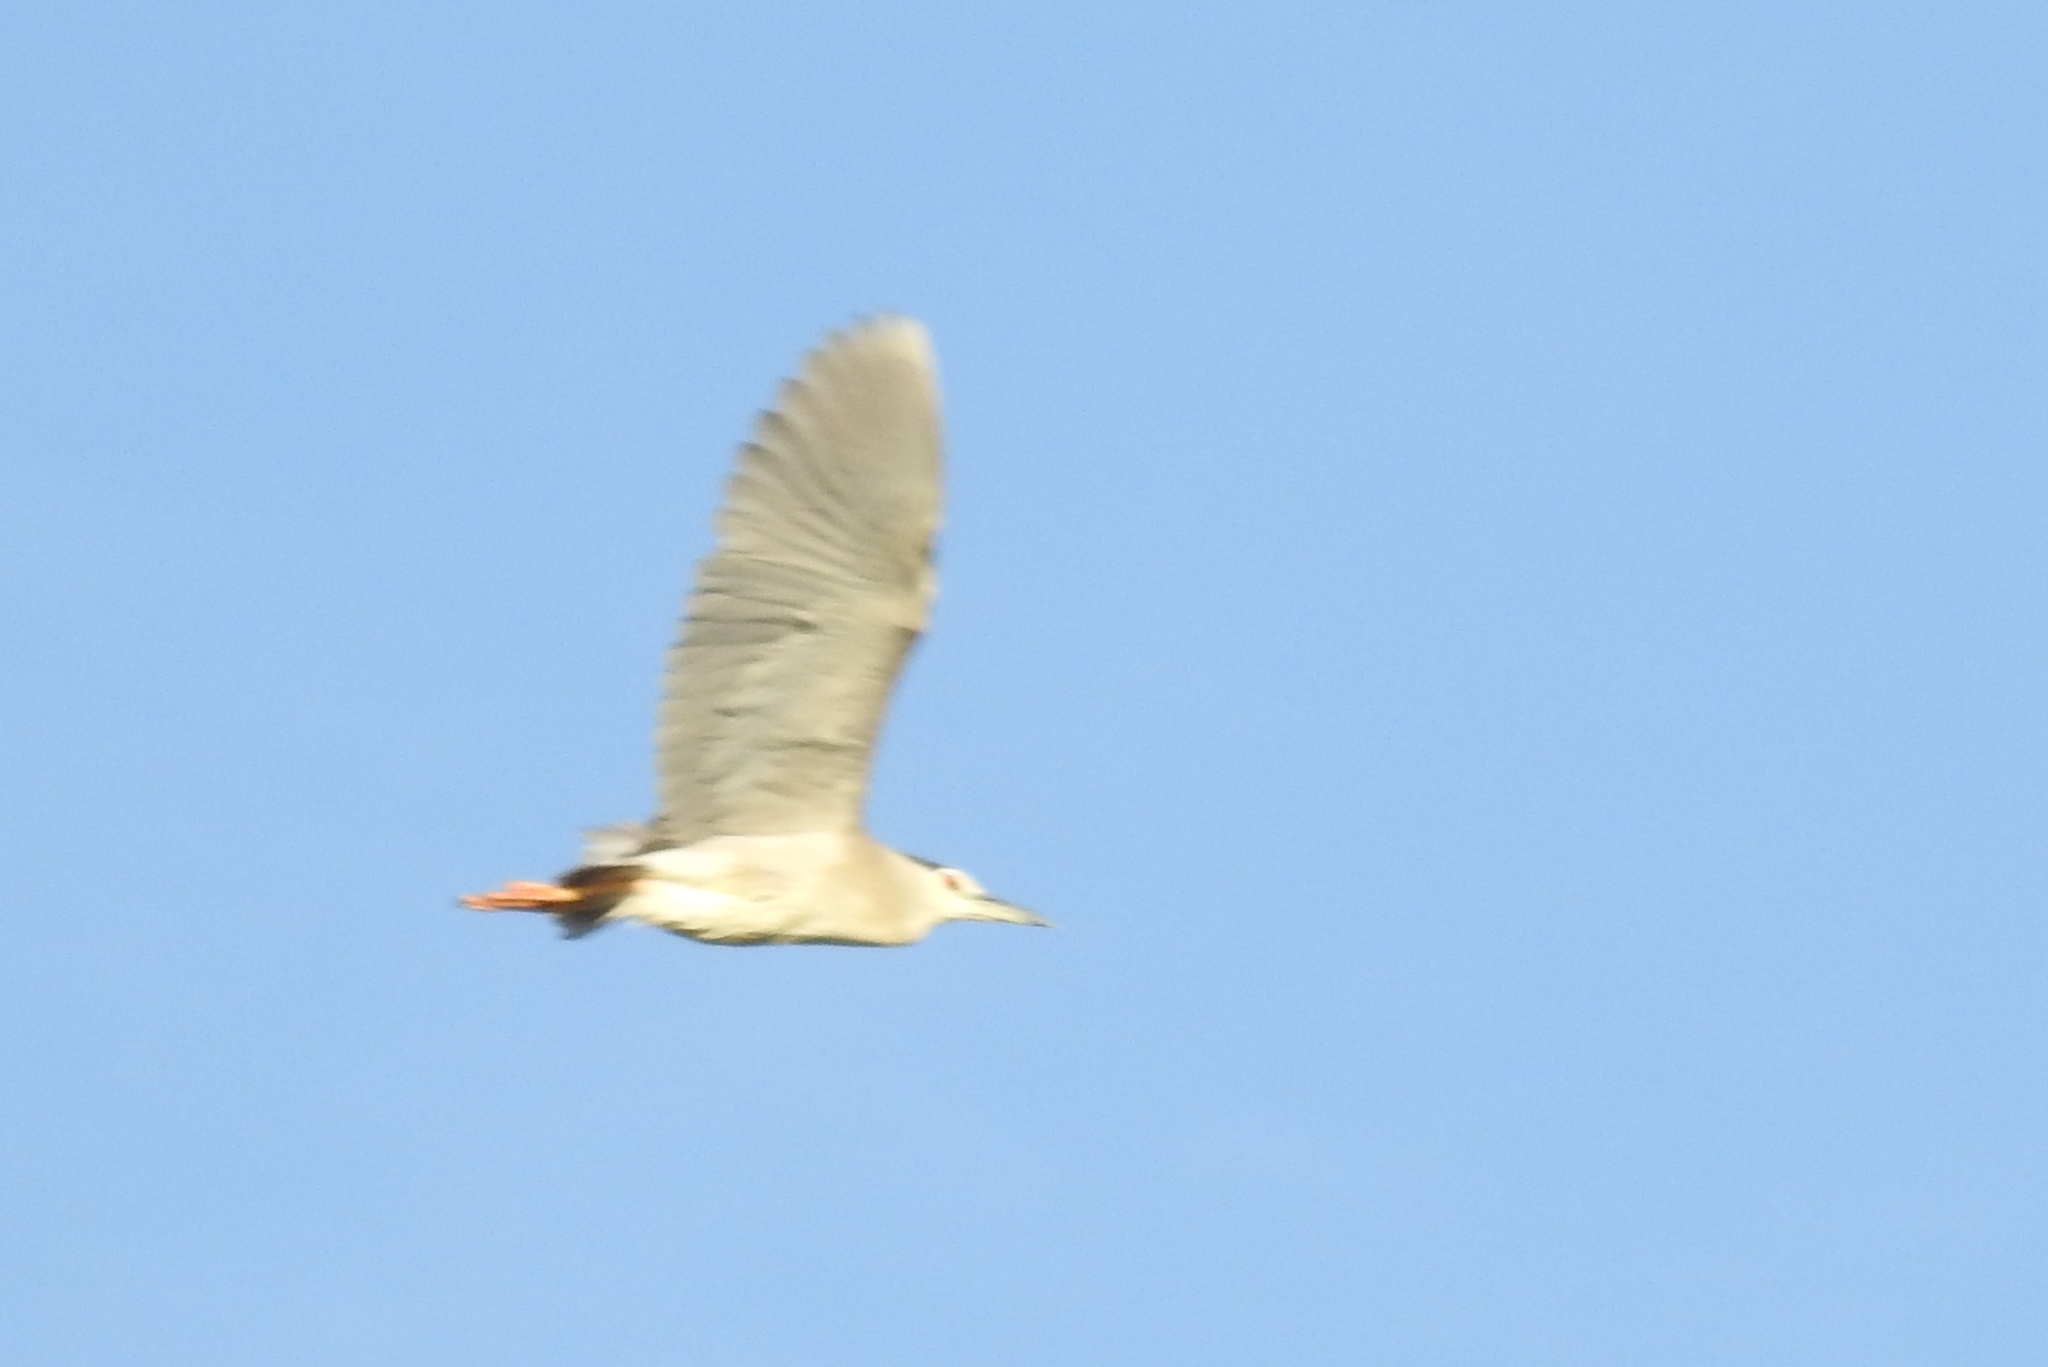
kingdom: Animalia
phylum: Chordata
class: Aves
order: Pelecaniformes
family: Ardeidae
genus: Nycticorax
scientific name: Nycticorax nycticorax
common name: Black-crowned night heron
